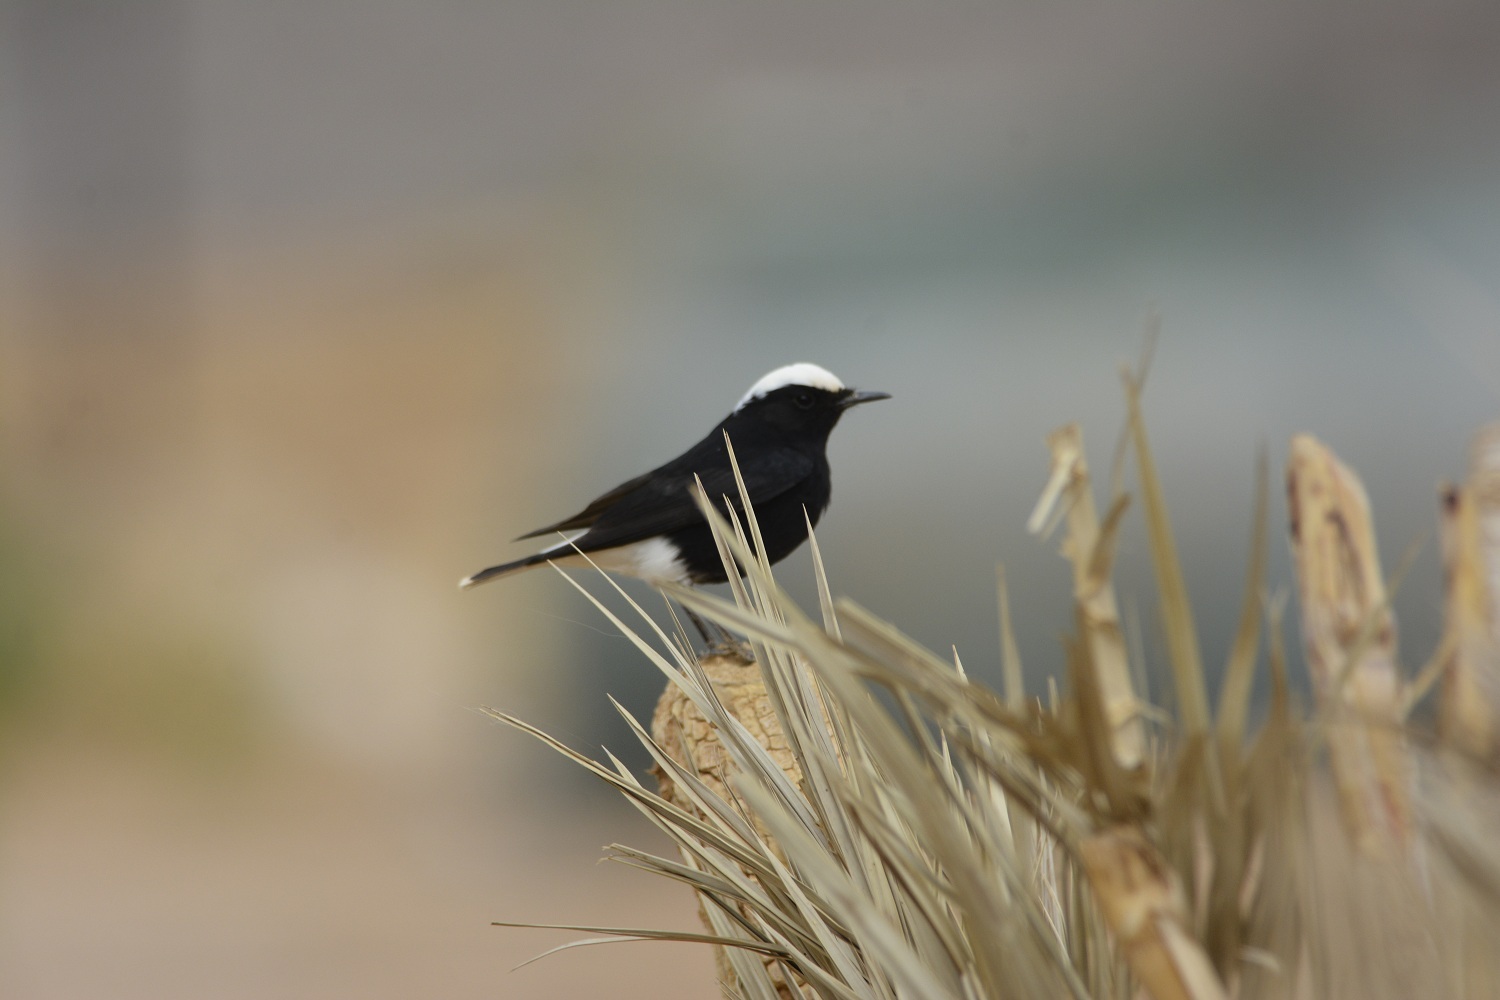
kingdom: Animalia
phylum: Chordata
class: Aves
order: Passeriformes
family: Muscicapidae
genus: Oenanthe
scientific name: Oenanthe leucopyga
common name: White-crowned wheatear
